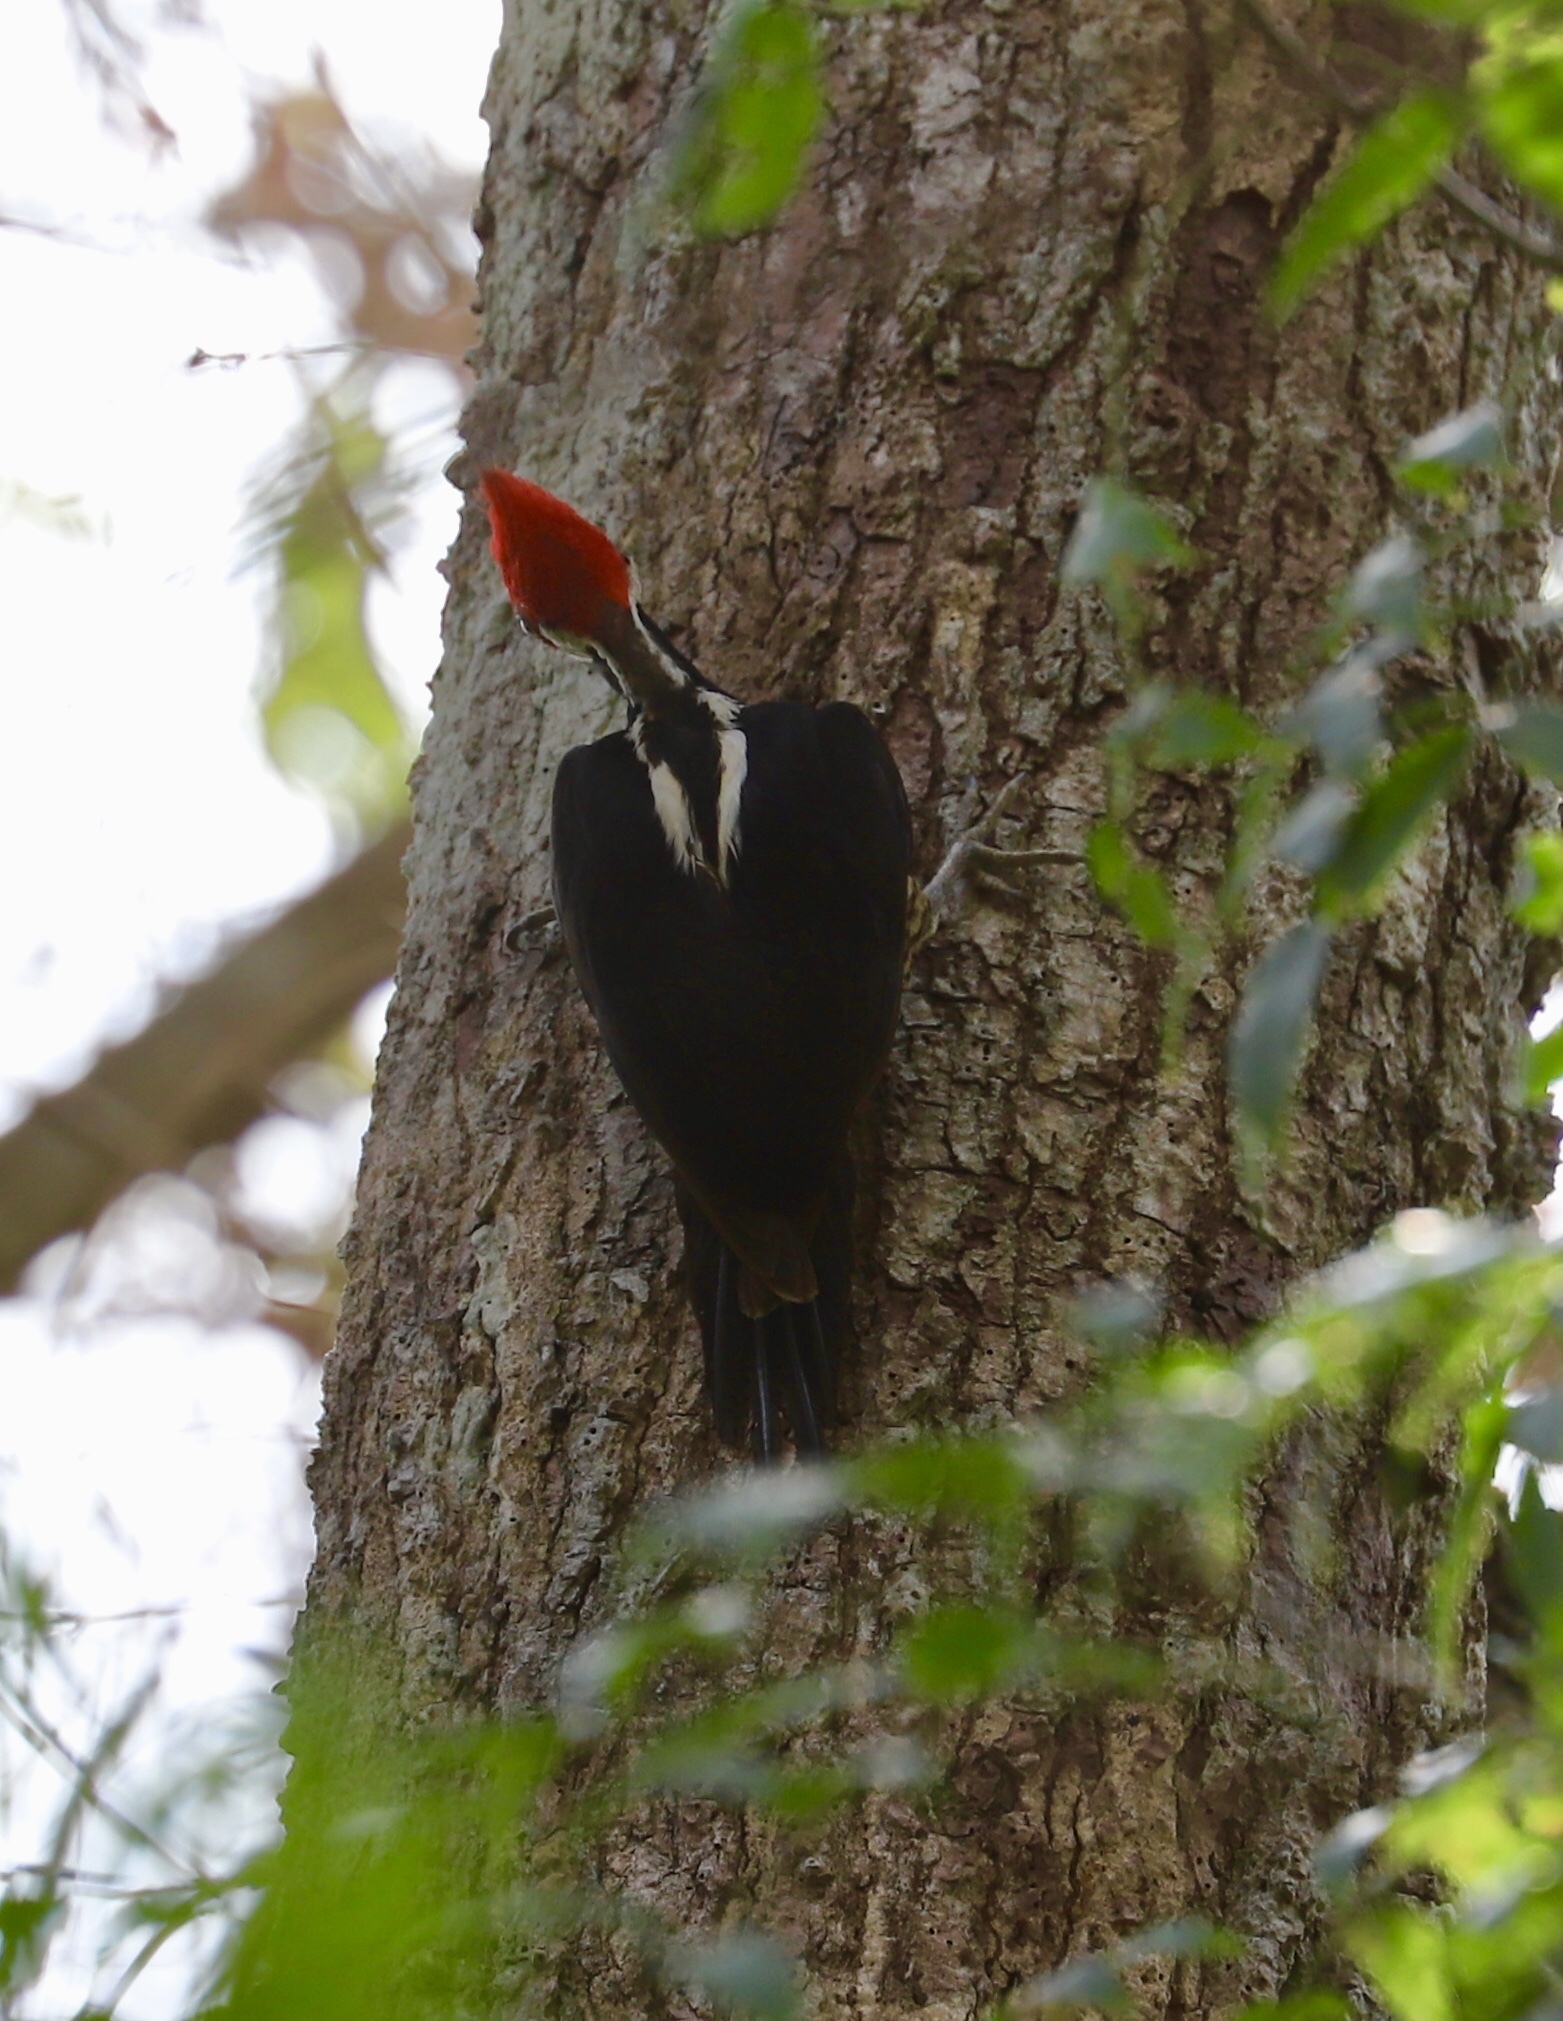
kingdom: Animalia
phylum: Chordata
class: Aves
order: Piciformes
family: Picidae
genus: Campephilus
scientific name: Campephilus melanoleucos
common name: Crimson-crested woodpecker
